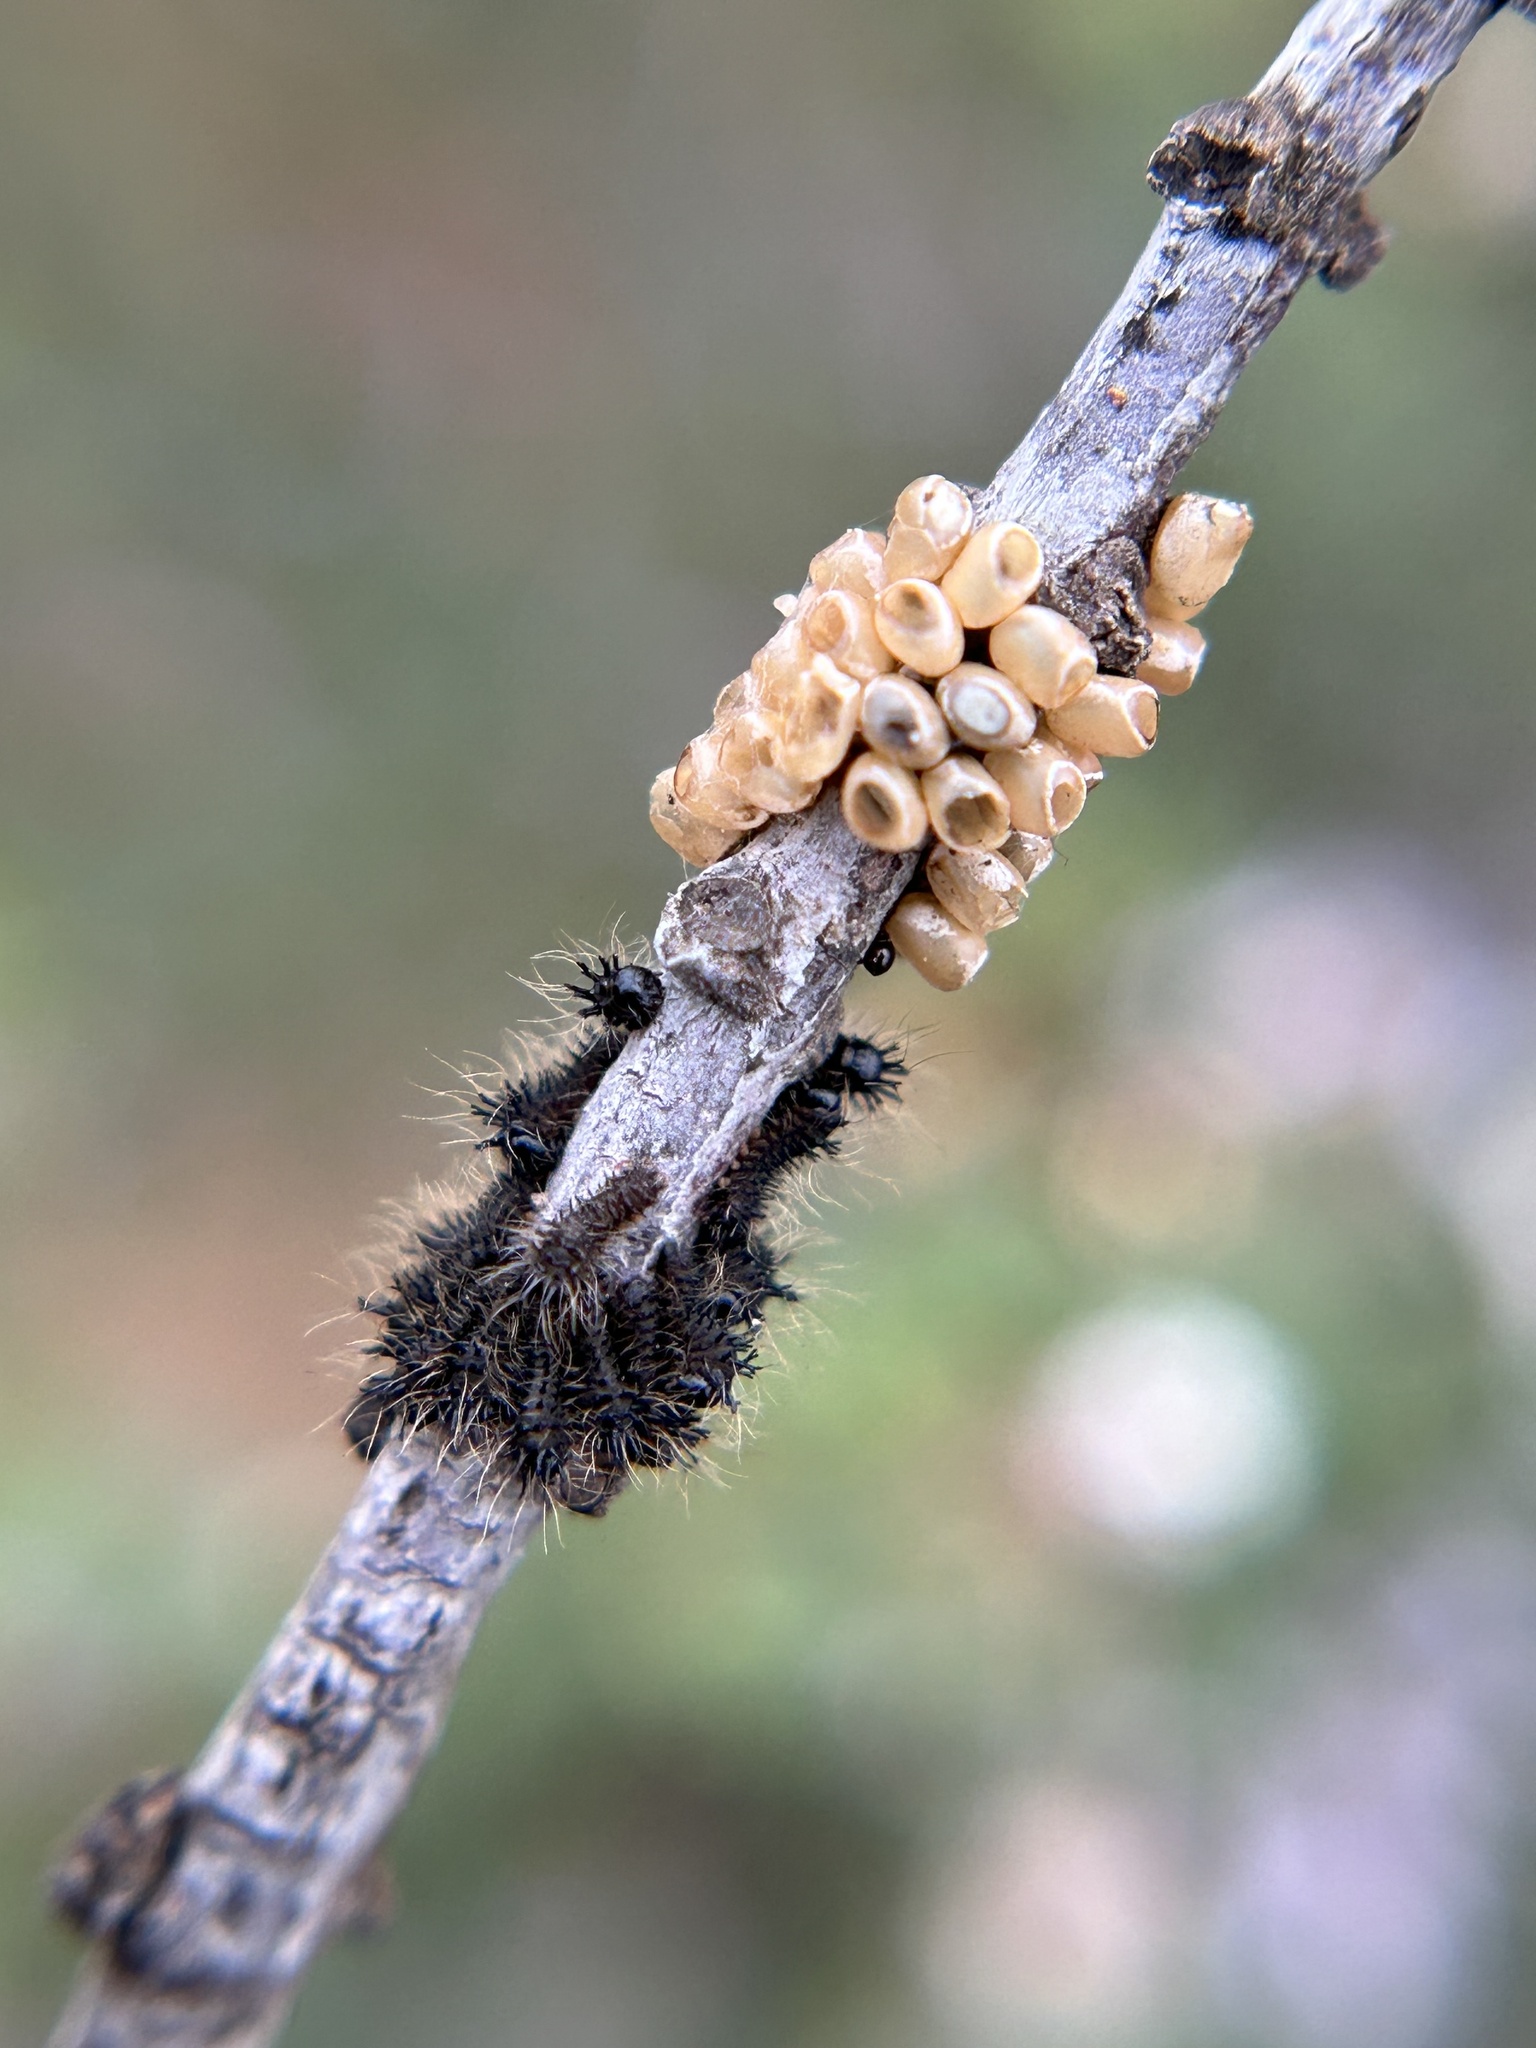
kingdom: Animalia
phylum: Arthropoda
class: Insecta
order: Lepidoptera
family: Saturniidae
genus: Hemileuca
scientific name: Hemileuca eglanterina
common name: Western sheepmoth
